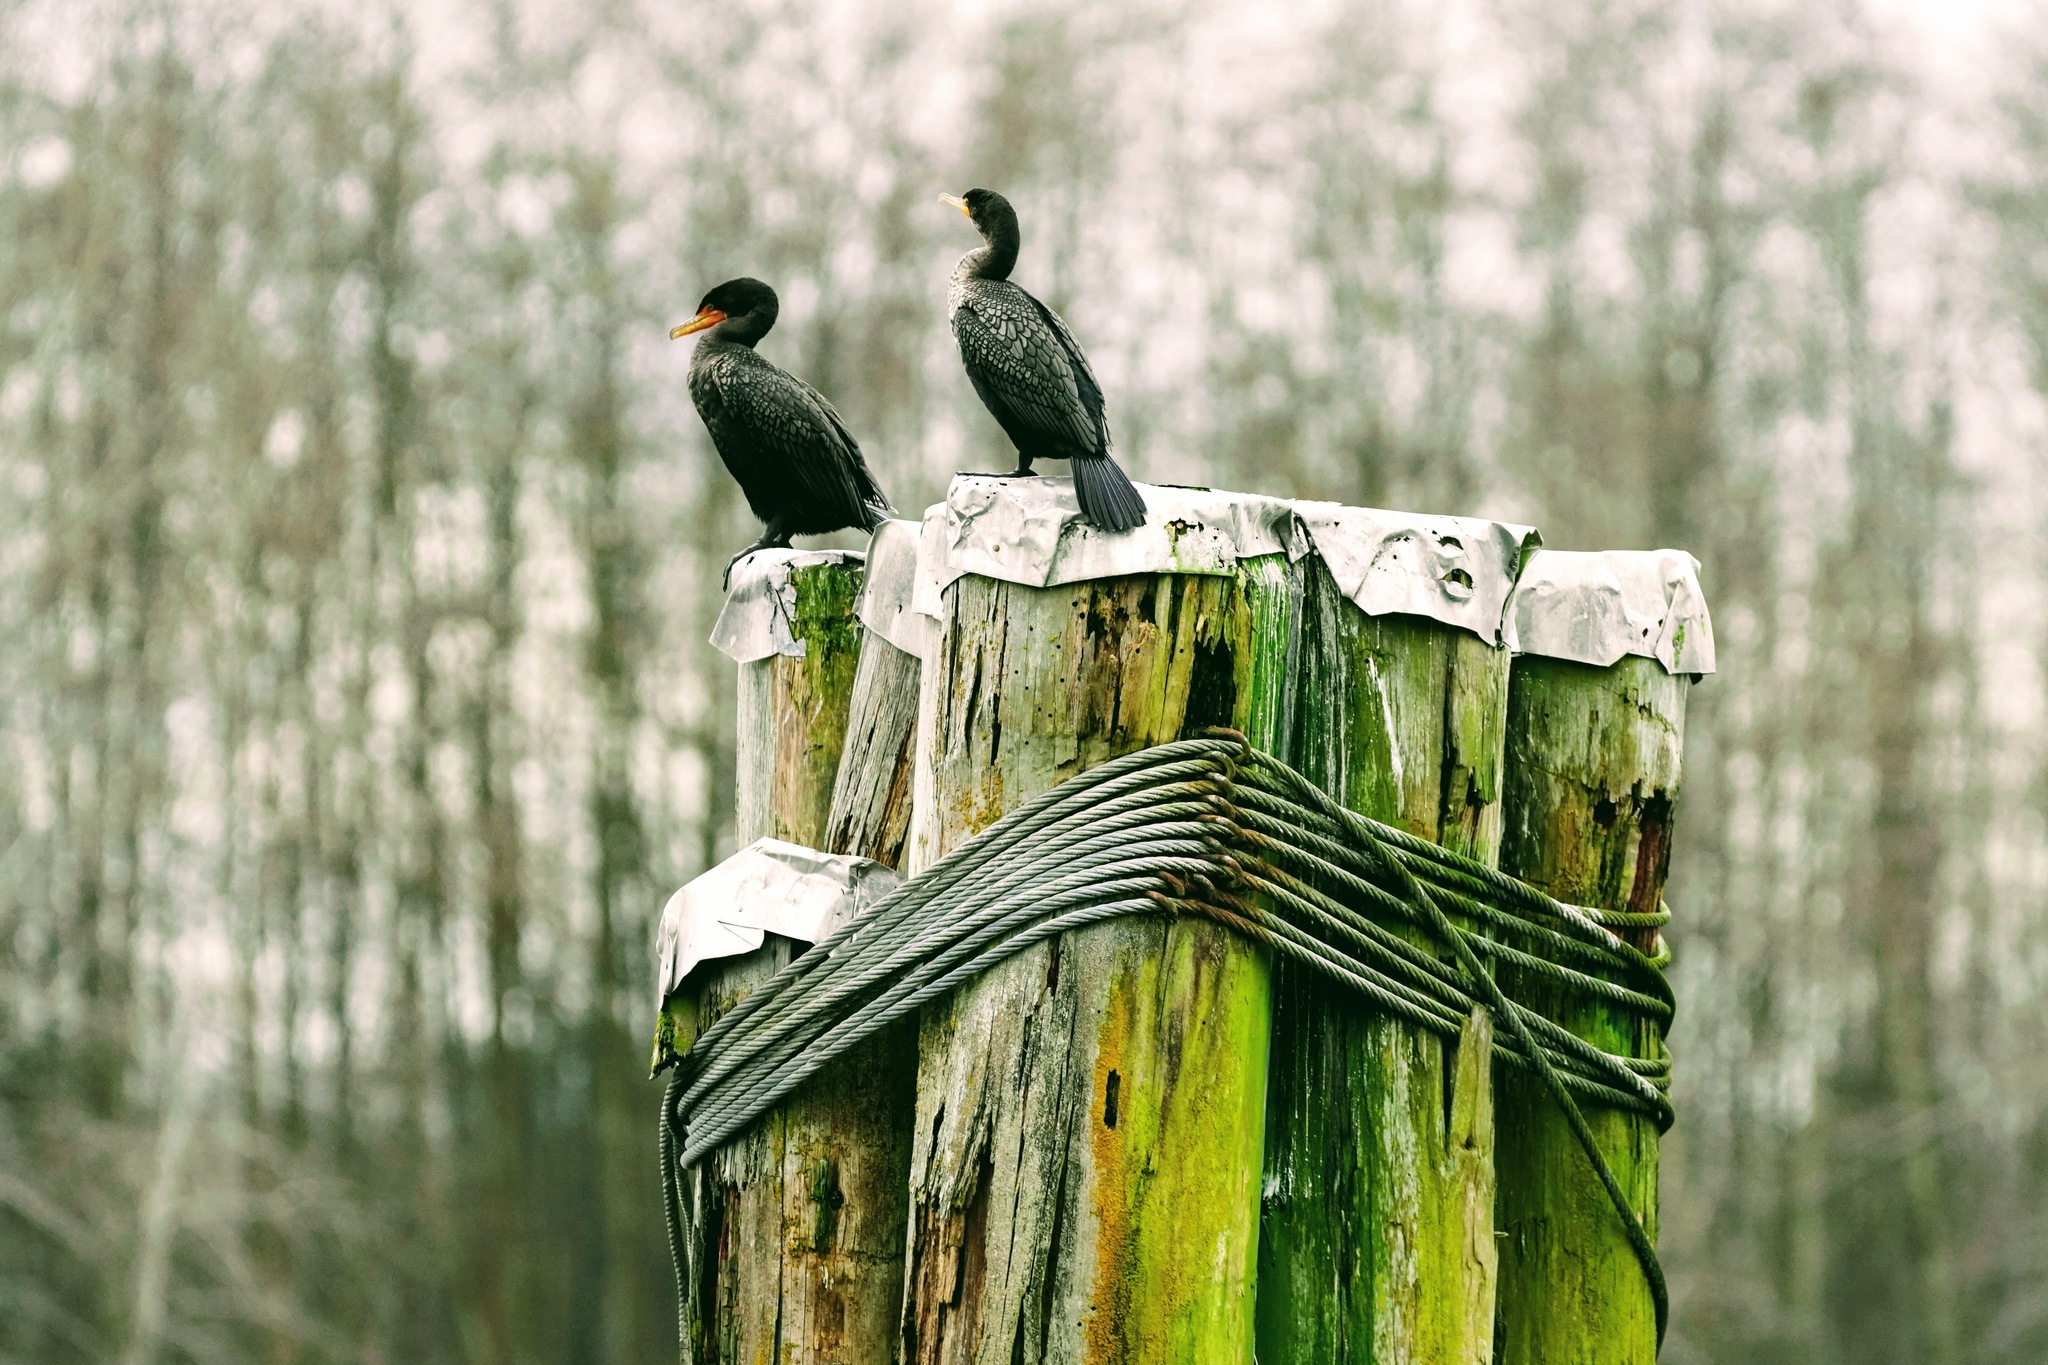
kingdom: Animalia
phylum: Chordata
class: Aves
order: Suliformes
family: Phalacrocoracidae
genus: Phalacrocorax
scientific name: Phalacrocorax auritus
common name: Double-crested cormorant
